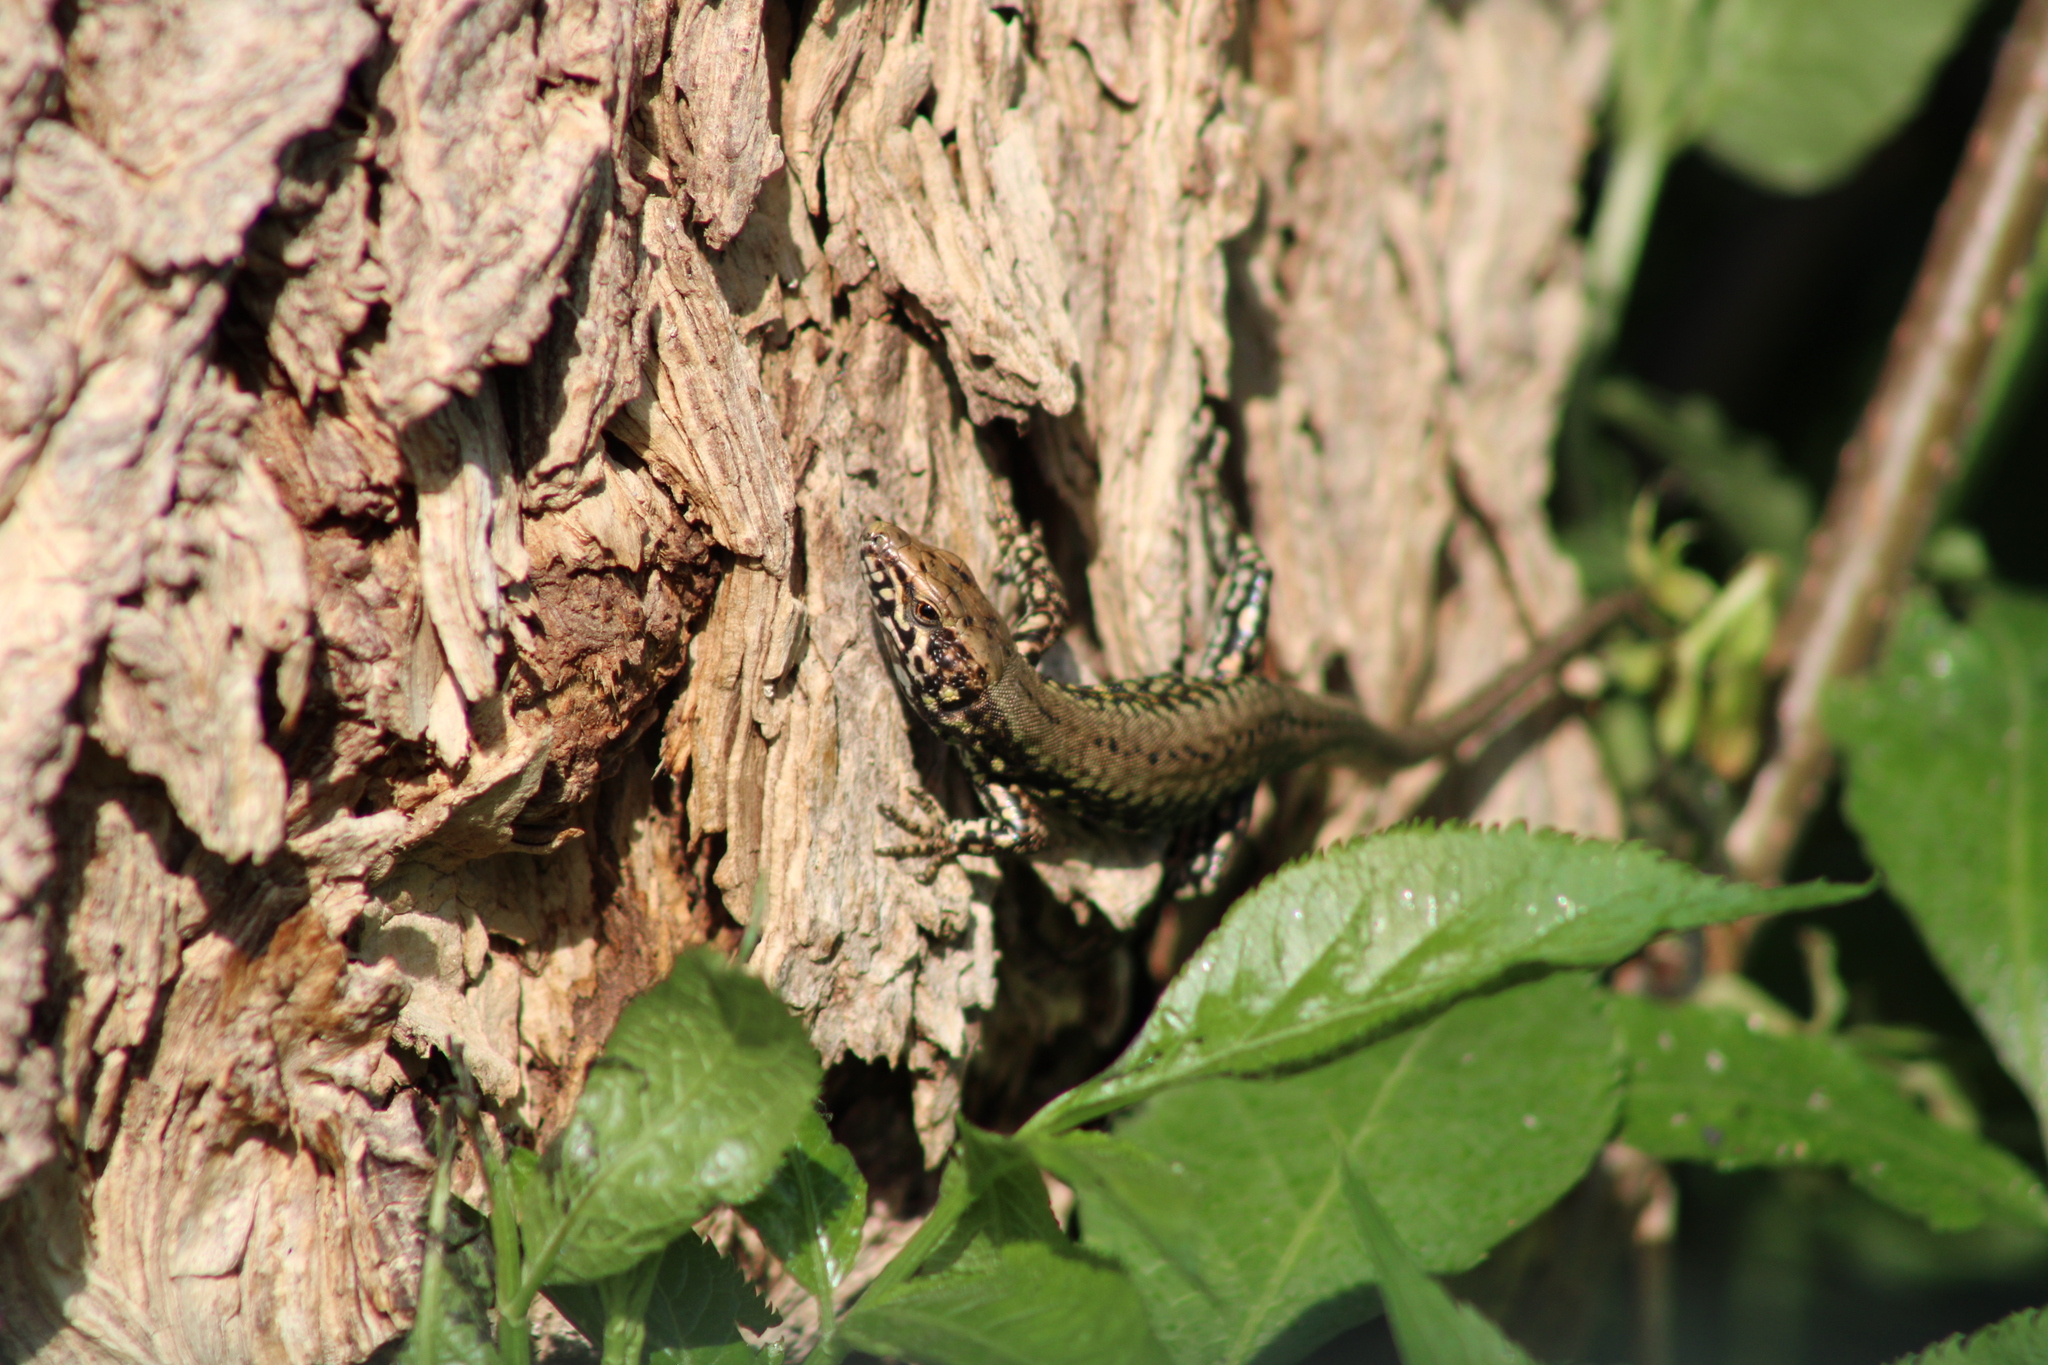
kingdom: Animalia
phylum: Chordata
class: Squamata
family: Lacertidae
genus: Podarcis
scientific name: Podarcis muralis
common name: Common wall lizard
